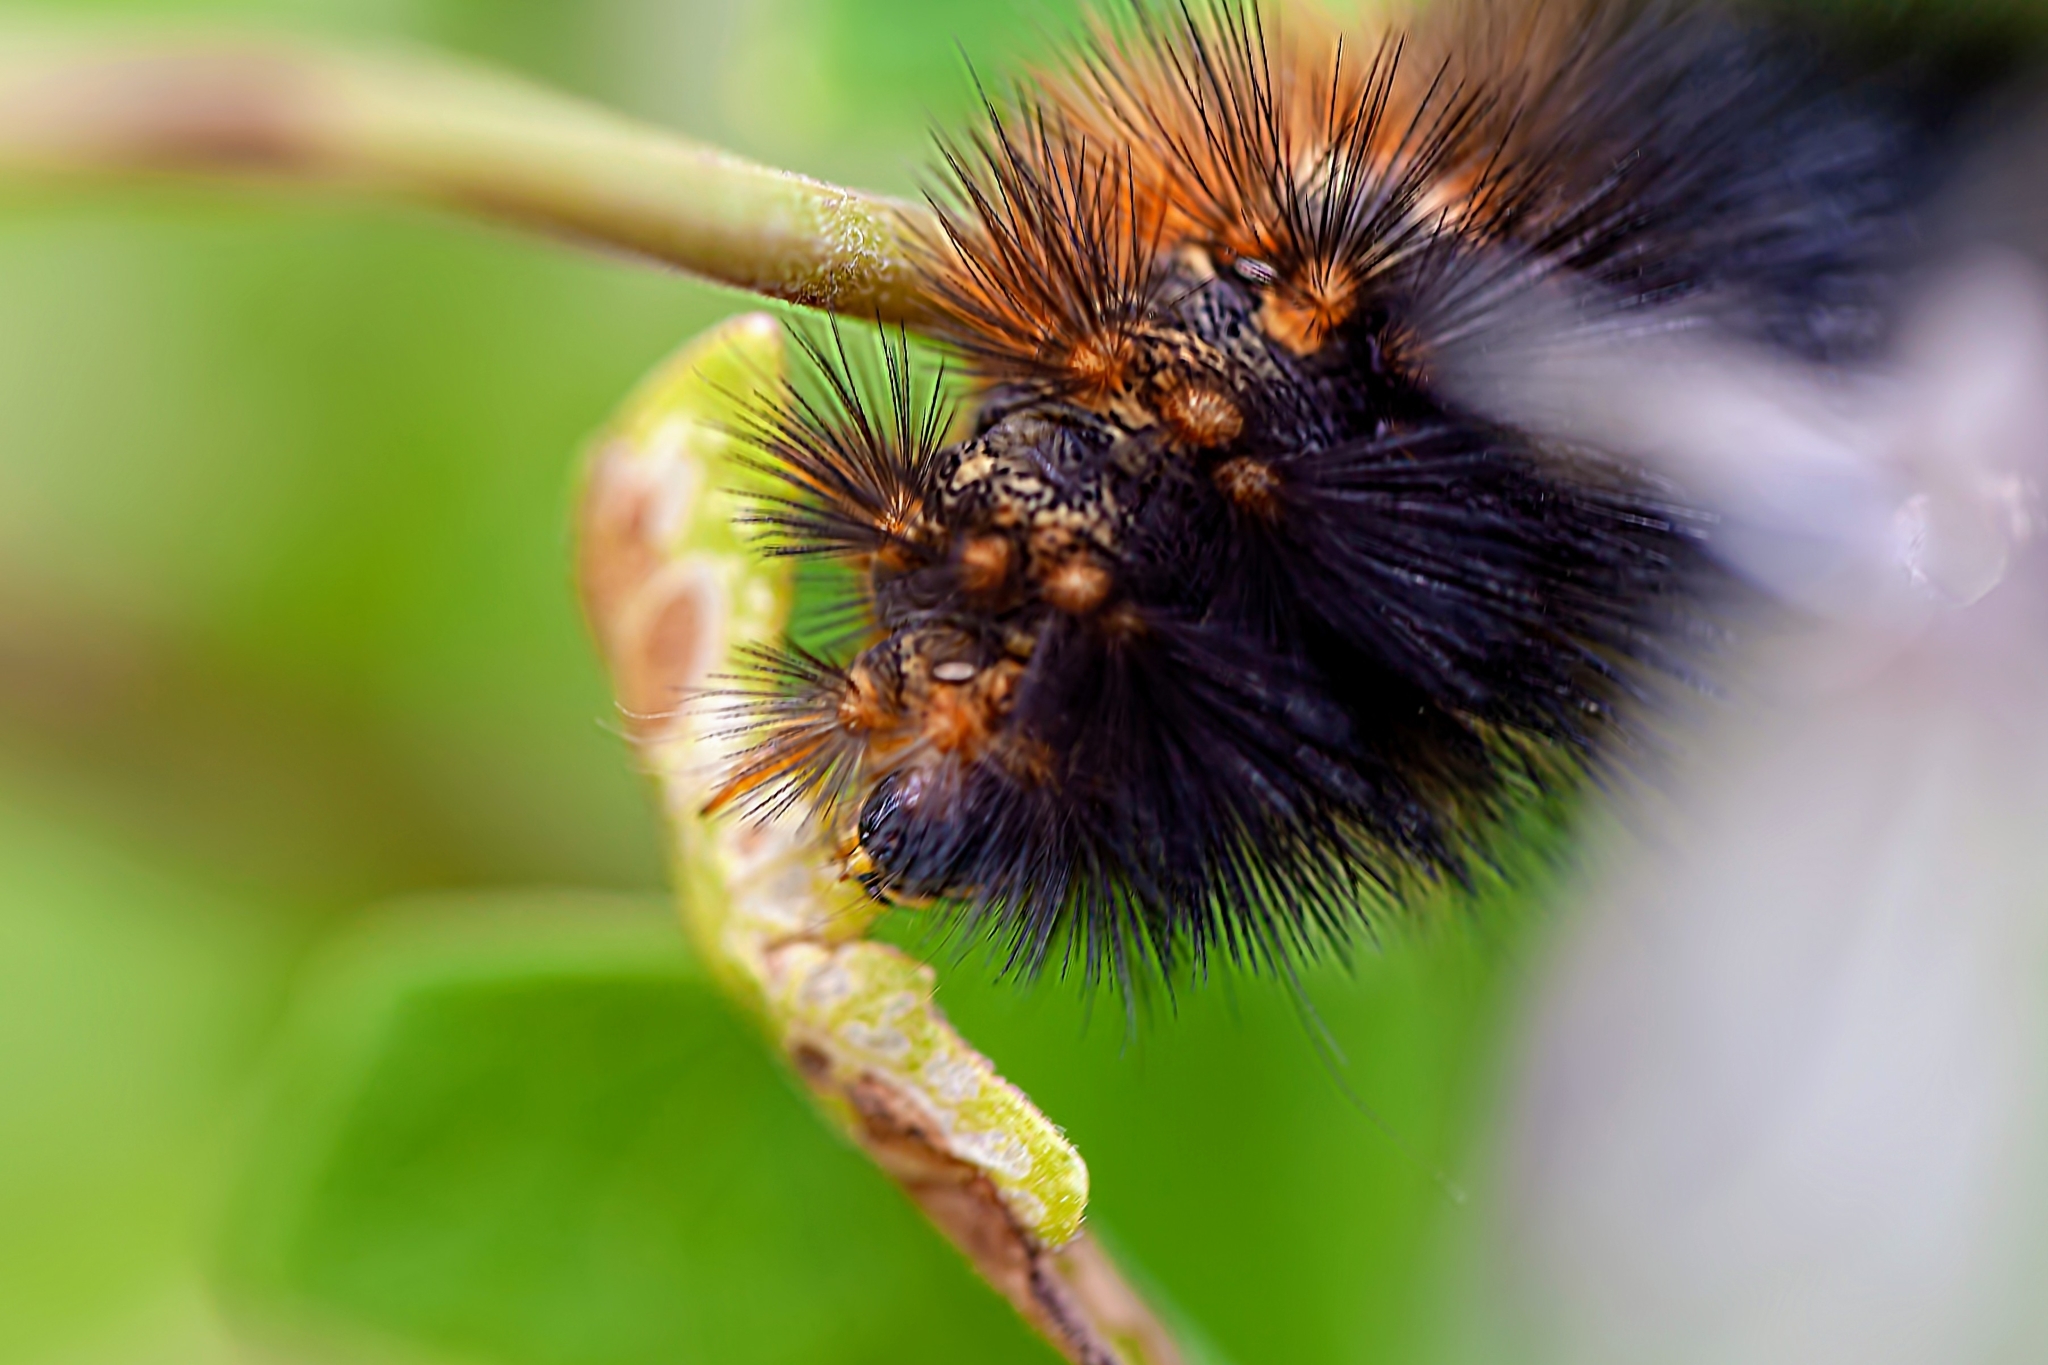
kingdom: Animalia
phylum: Arthropoda
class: Insecta
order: Lepidoptera
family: Erebidae
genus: Estigmene
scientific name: Estigmene acrea
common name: Salt marsh moth
